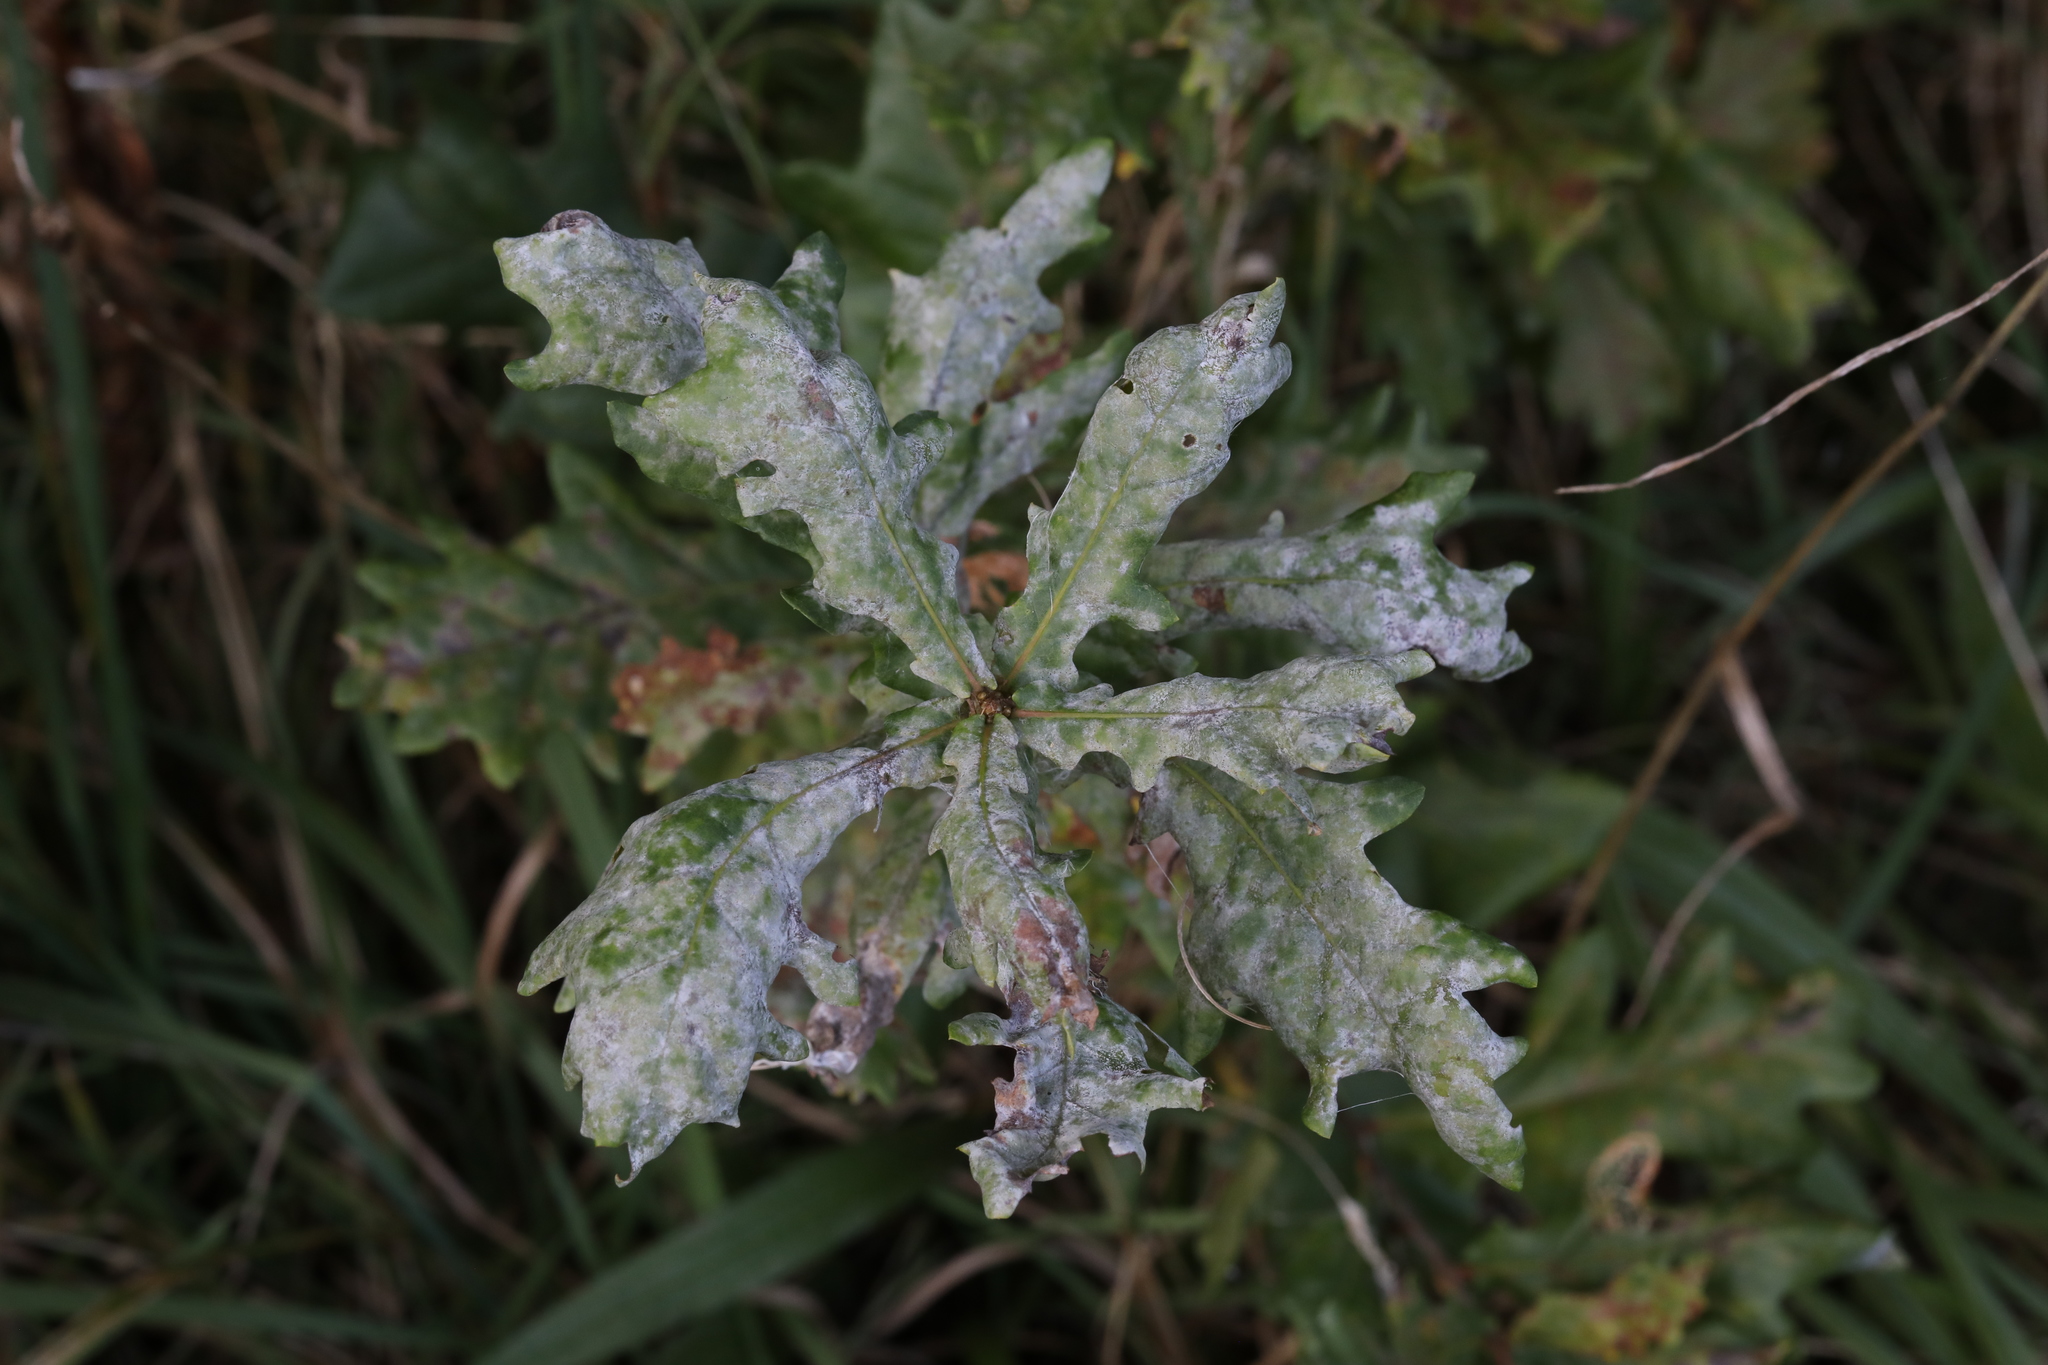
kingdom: Fungi
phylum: Ascomycota
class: Leotiomycetes
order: Helotiales
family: Erysiphaceae
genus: Erysiphe
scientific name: Erysiphe alphitoides
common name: Oak mildew
